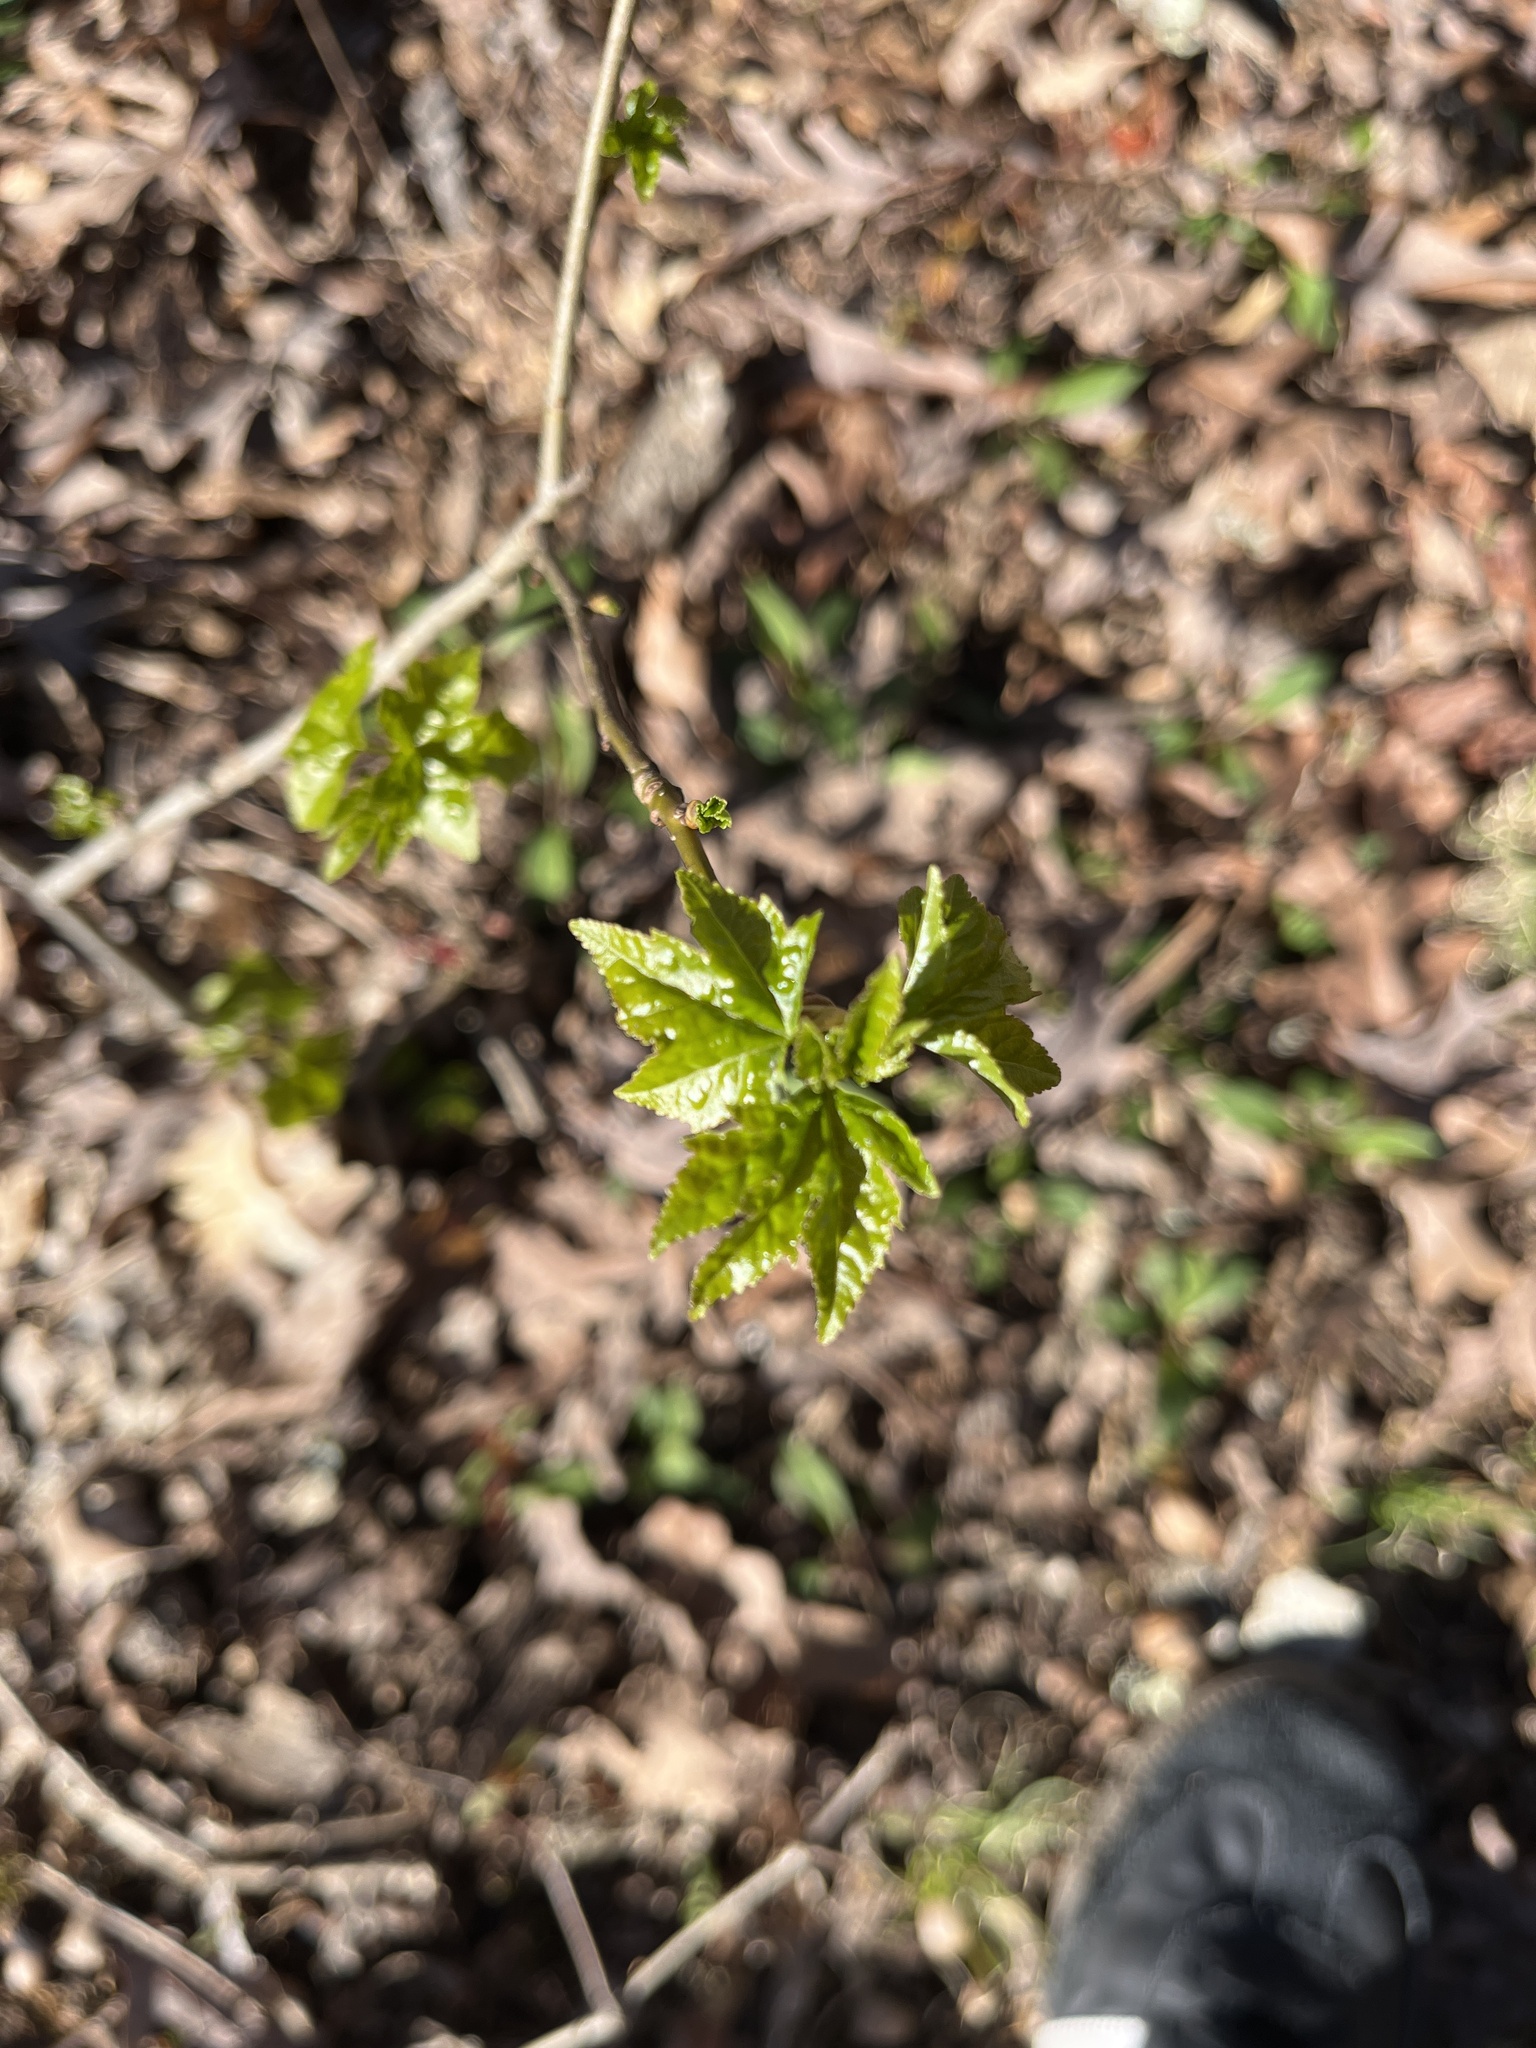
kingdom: Plantae
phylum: Tracheophyta
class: Magnoliopsida
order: Saxifragales
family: Altingiaceae
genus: Liquidambar
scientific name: Liquidambar styraciflua
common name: Sweet gum
